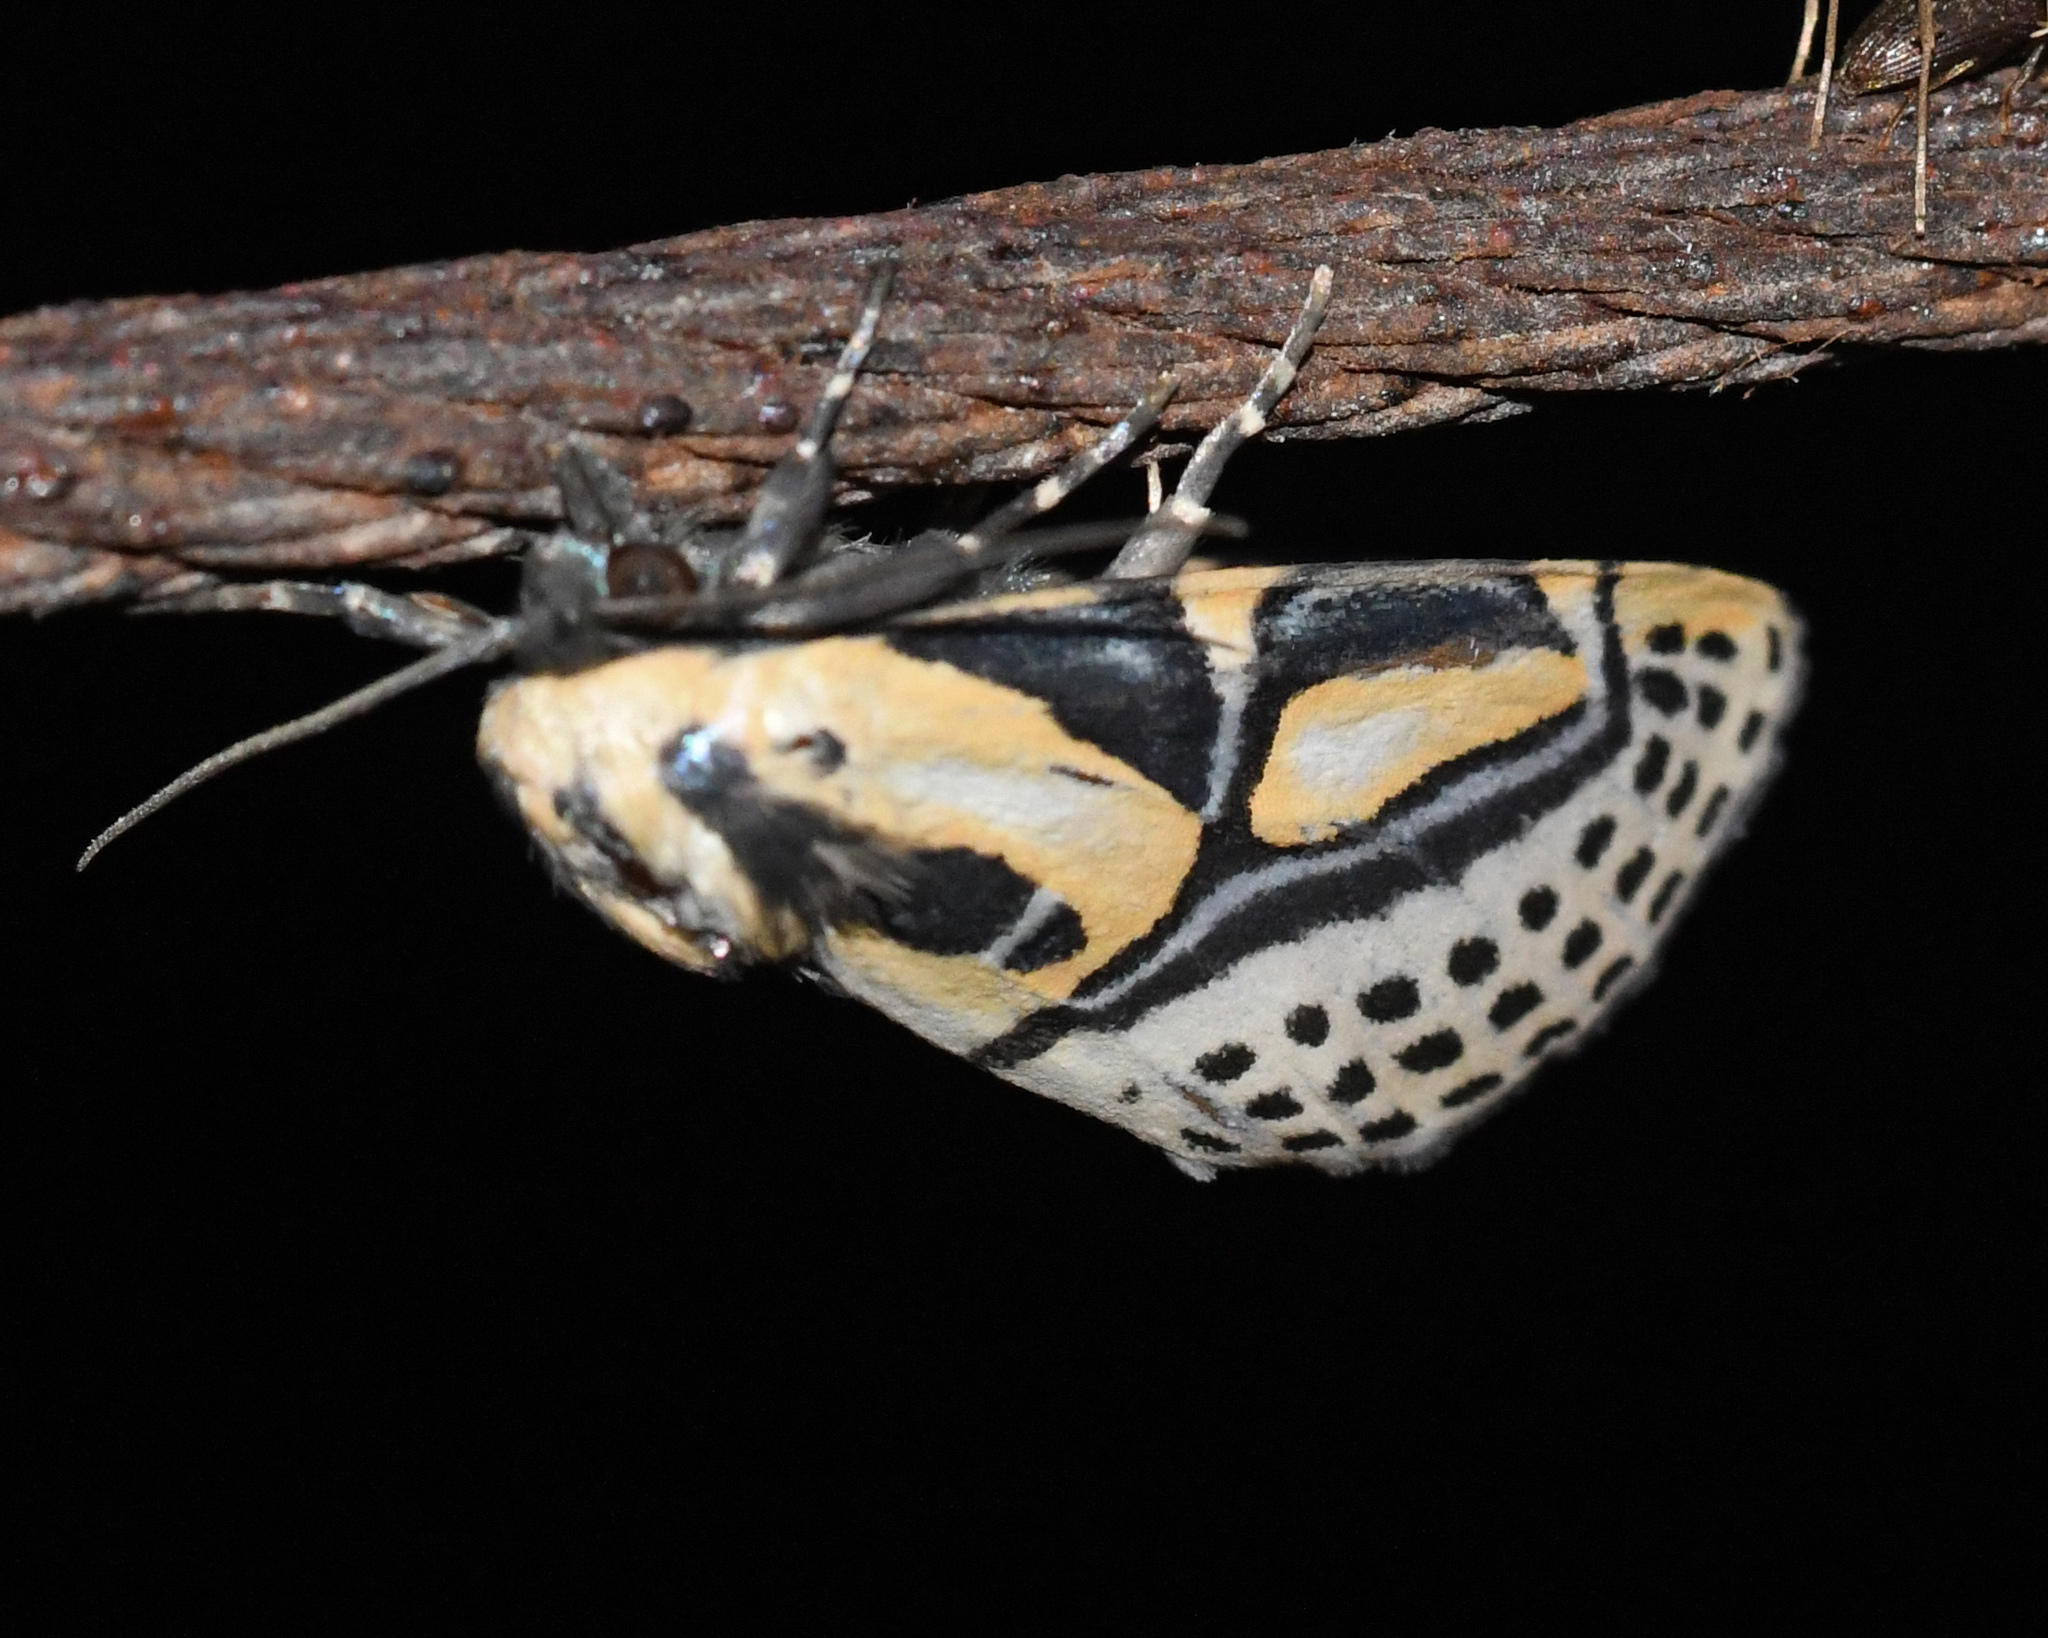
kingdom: Animalia
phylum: Arthropoda
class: Insecta
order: Lepidoptera
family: Erebidae
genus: Diphthera
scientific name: Diphthera festiva
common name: Hieroglyphic moth
